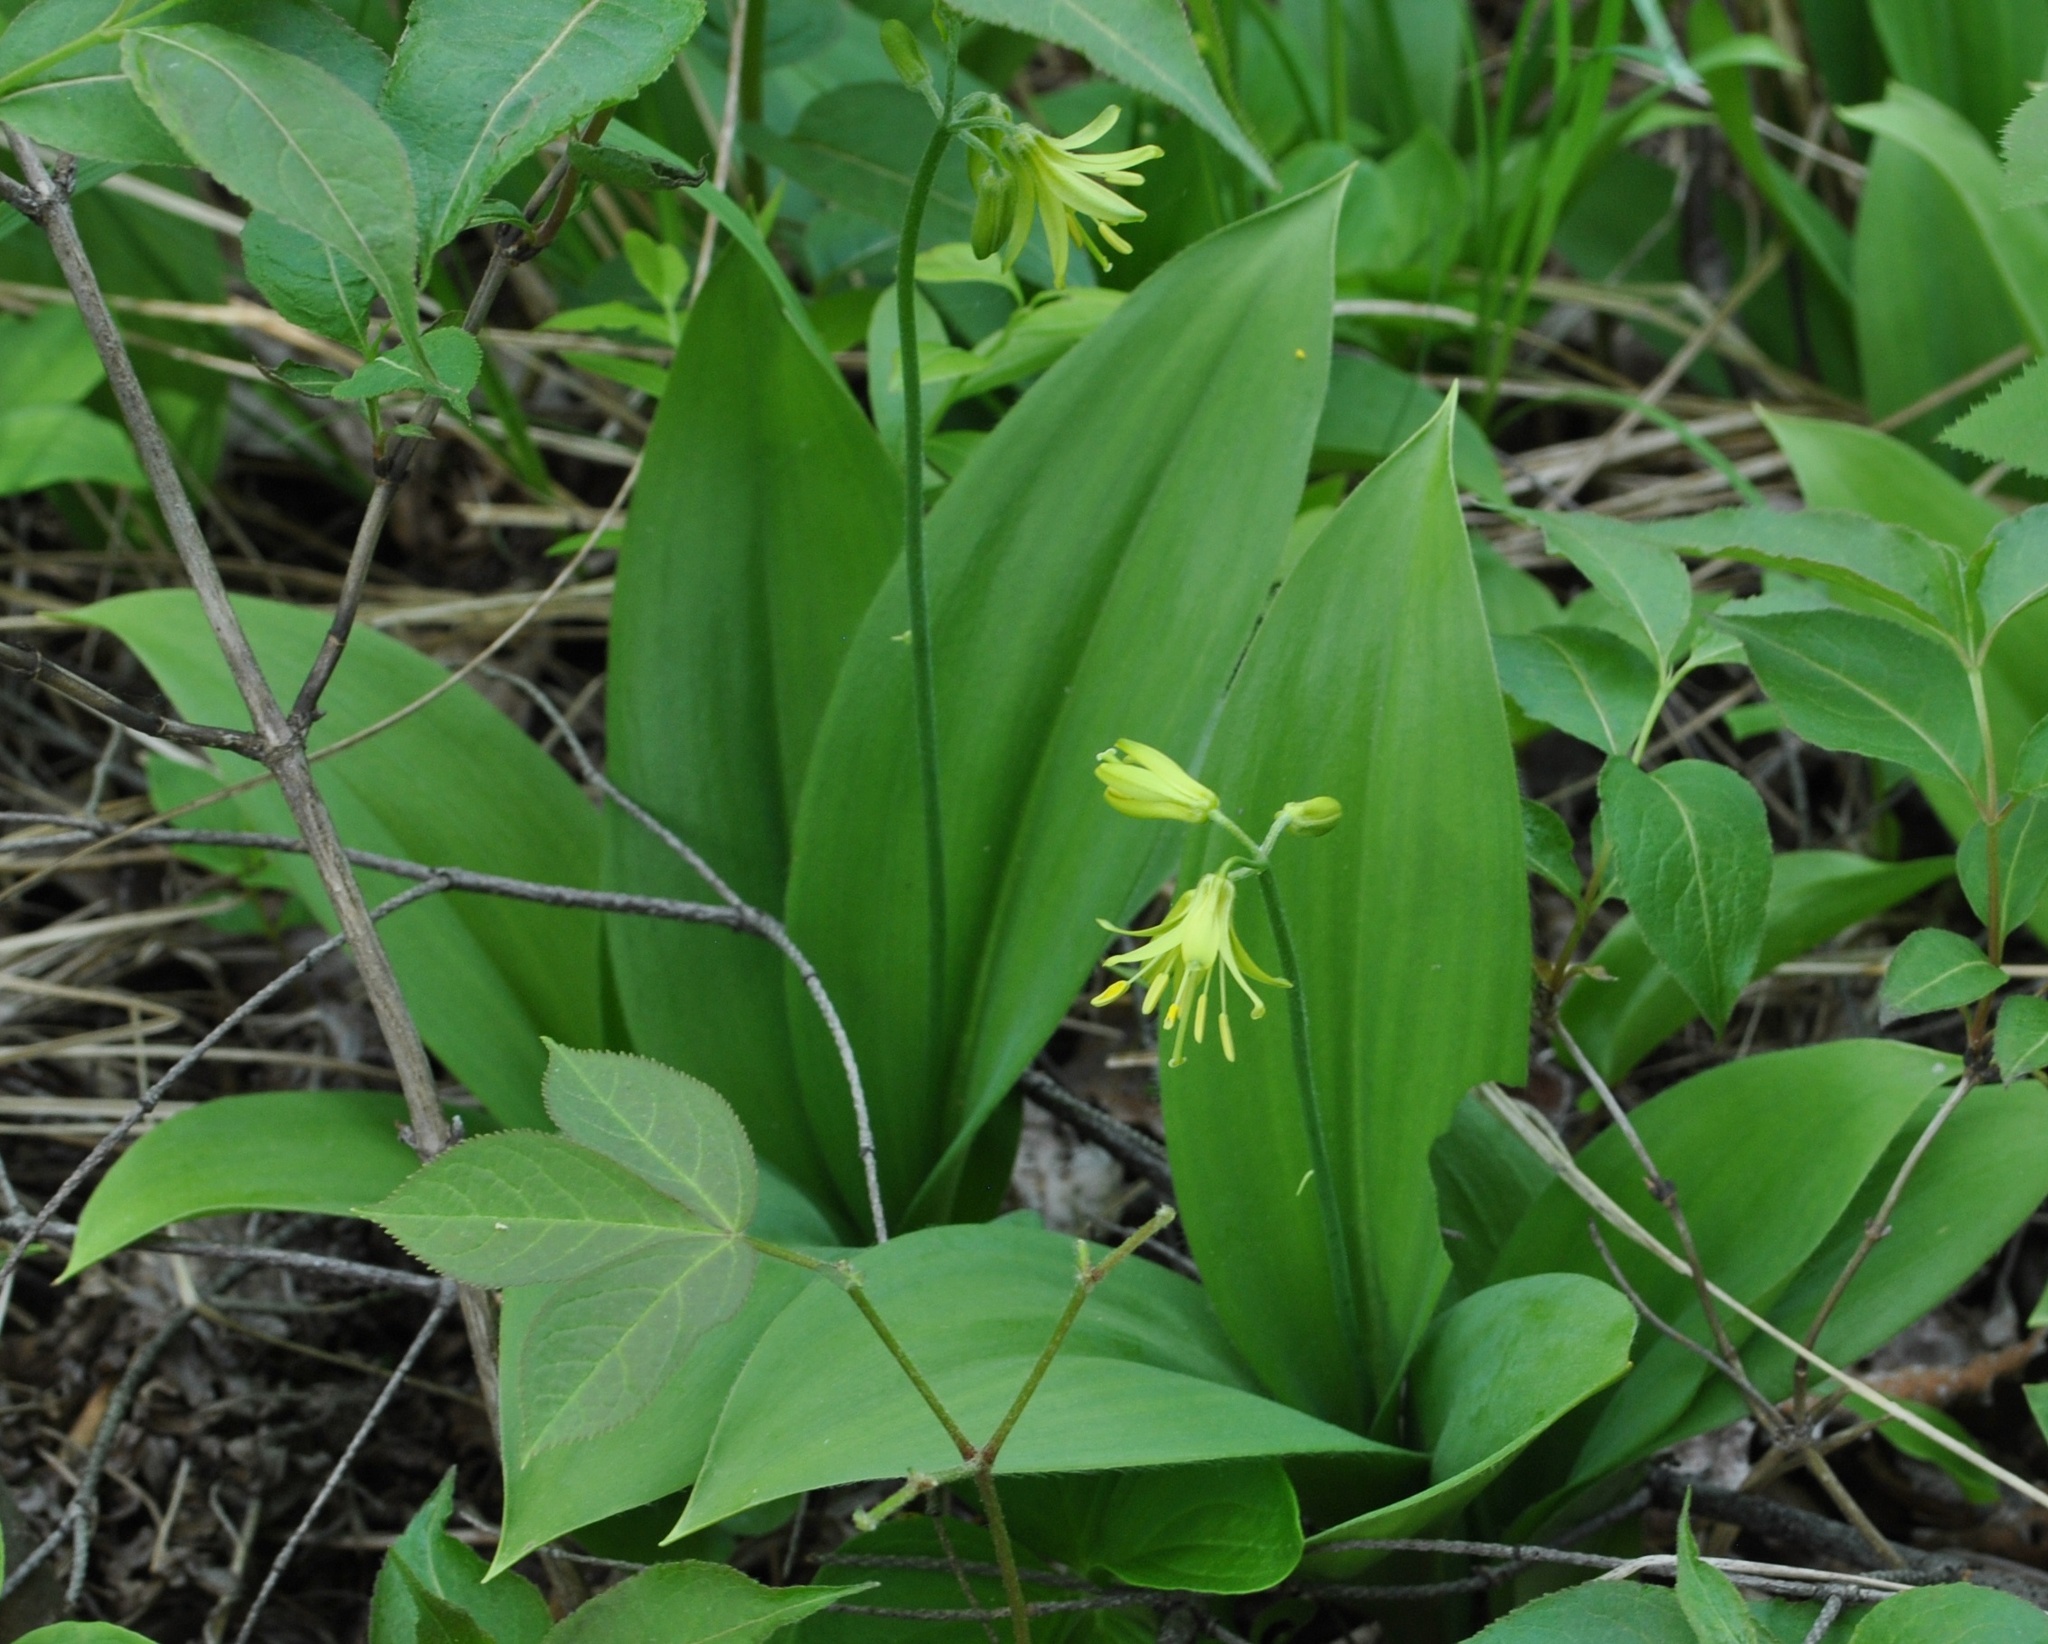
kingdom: Plantae
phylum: Tracheophyta
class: Liliopsida
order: Liliales
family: Liliaceae
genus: Clintonia
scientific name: Clintonia borealis
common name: Yellow clintonia
